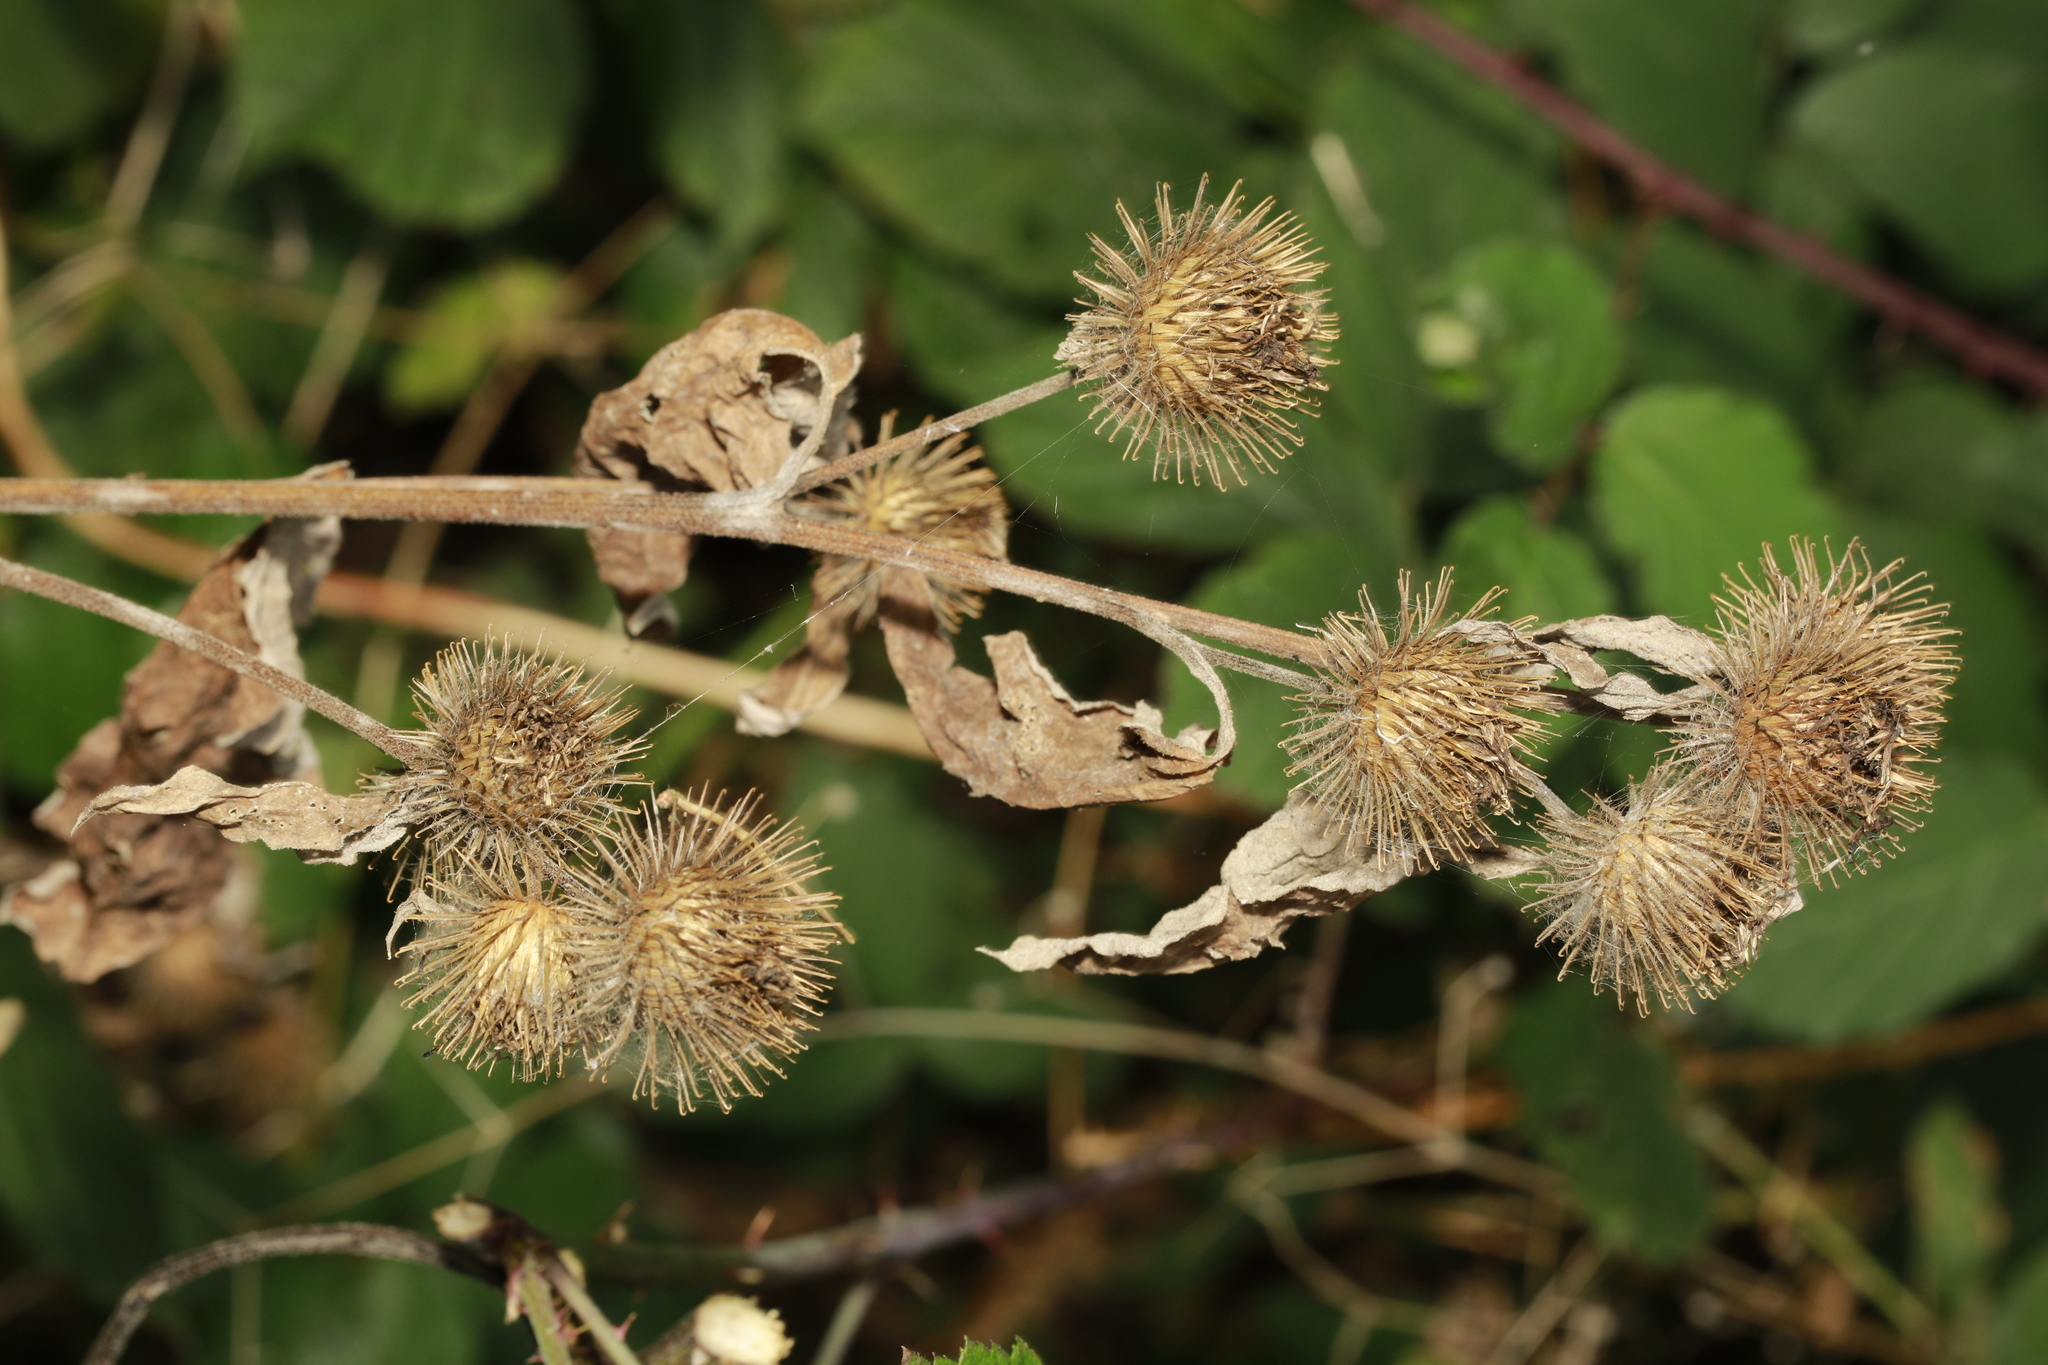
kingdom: Plantae
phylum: Tracheophyta
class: Magnoliopsida
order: Asterales
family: Asteraceae
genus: Arctium
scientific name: Arctium minus
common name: Lesser burdock
